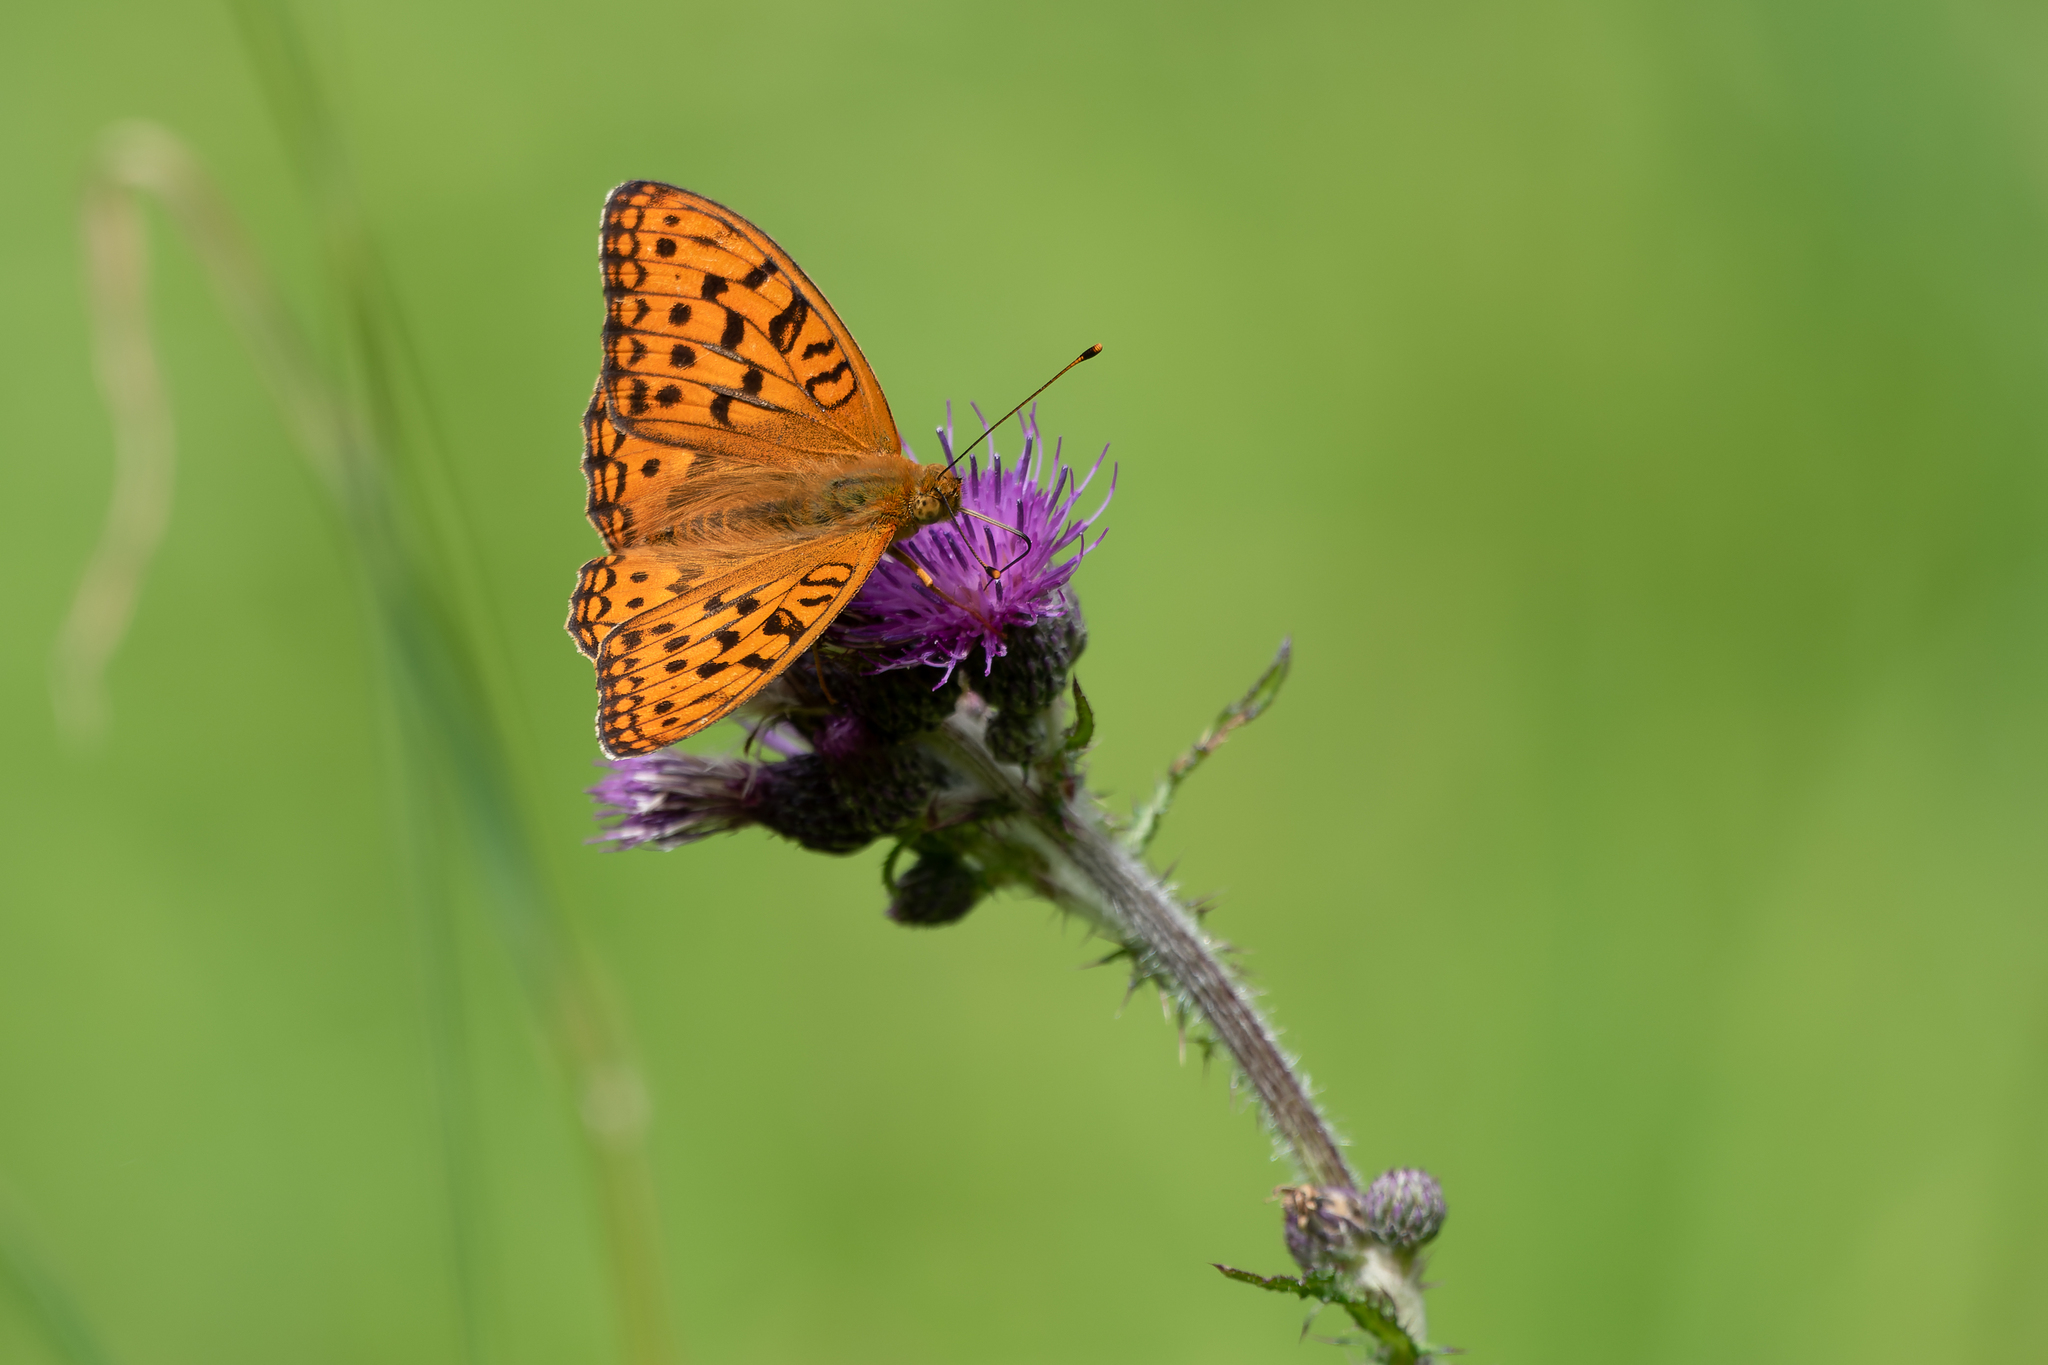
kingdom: Animalia
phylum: Arthropoda
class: Insecta
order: Lepidoptera
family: Nymphalidae
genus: Fabriciana
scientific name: Fabriciana adippe
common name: High brown fritillary
